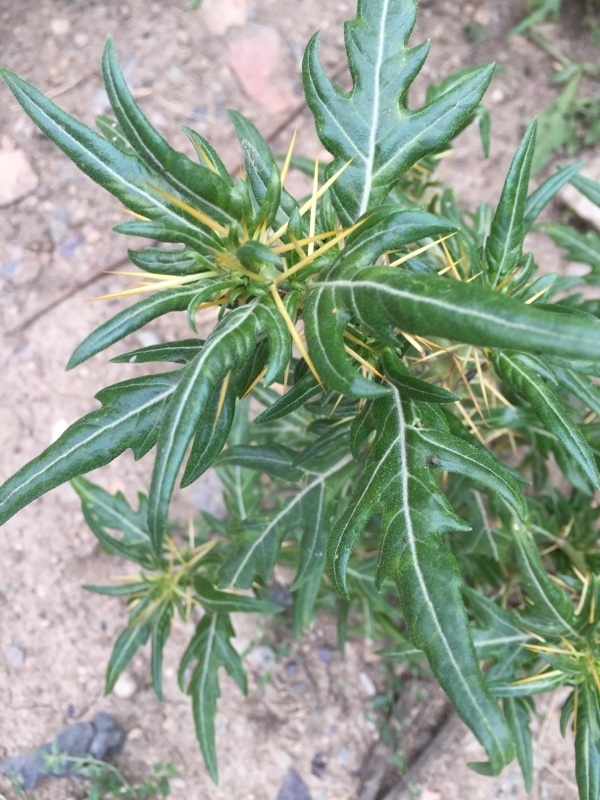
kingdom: Plantae
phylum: Tracheophyta
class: Magnoliopsida
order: Asterales
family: Asteraceae
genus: Xanthium
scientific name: Xanthium spinosum
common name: Spiny cocklebur
